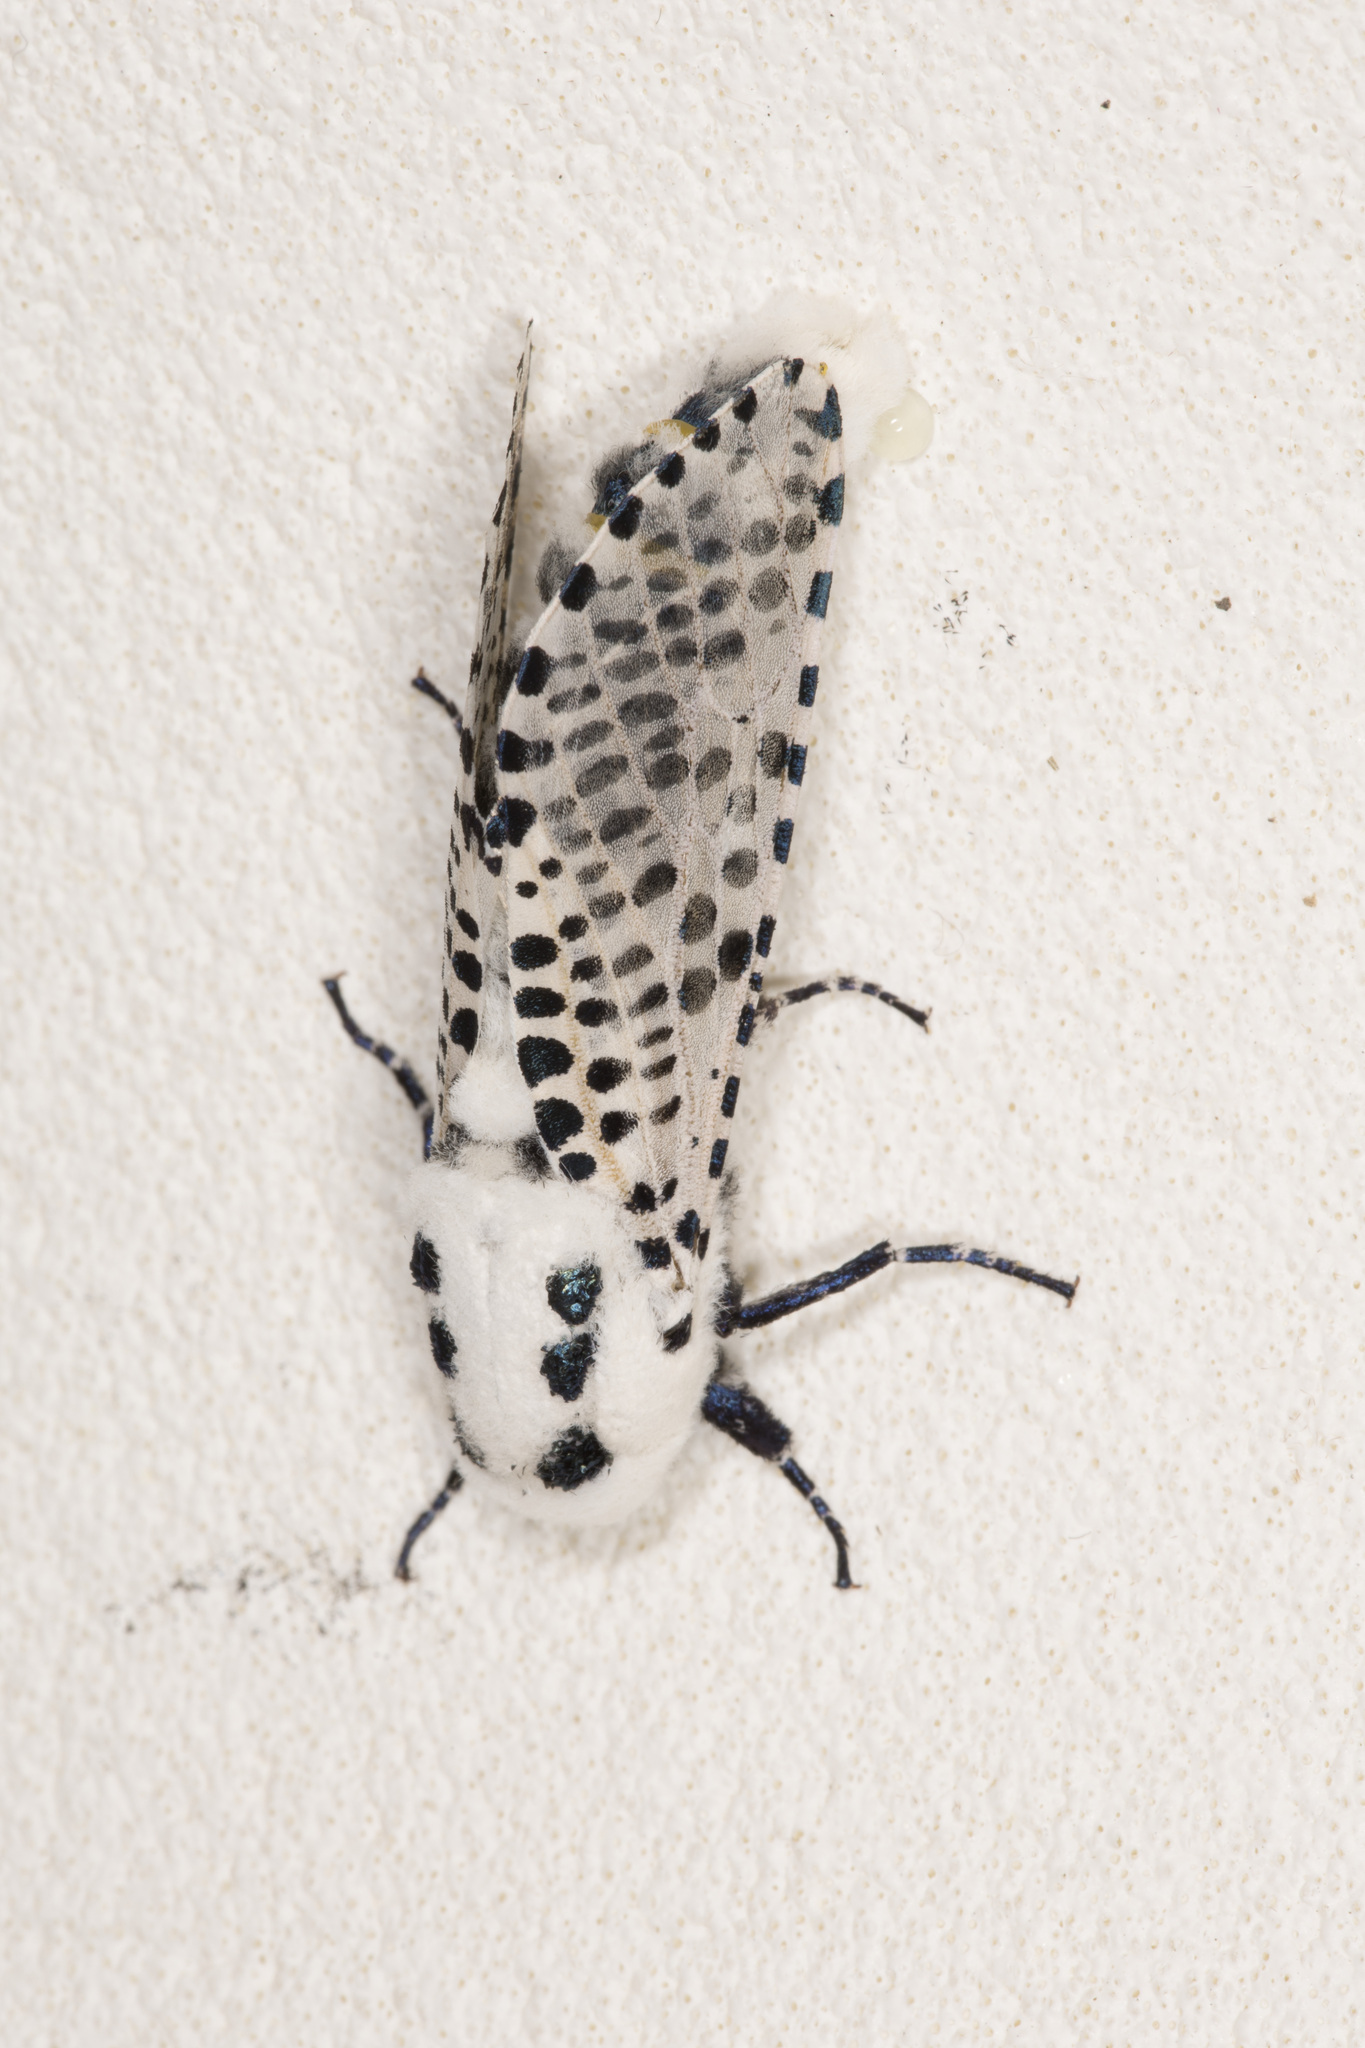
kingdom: Animalia
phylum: Arthropoda
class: Insecta
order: Lepidoptera
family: Cossidae
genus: Zeuzera
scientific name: Zeuzera pyrina
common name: Leopard moth
